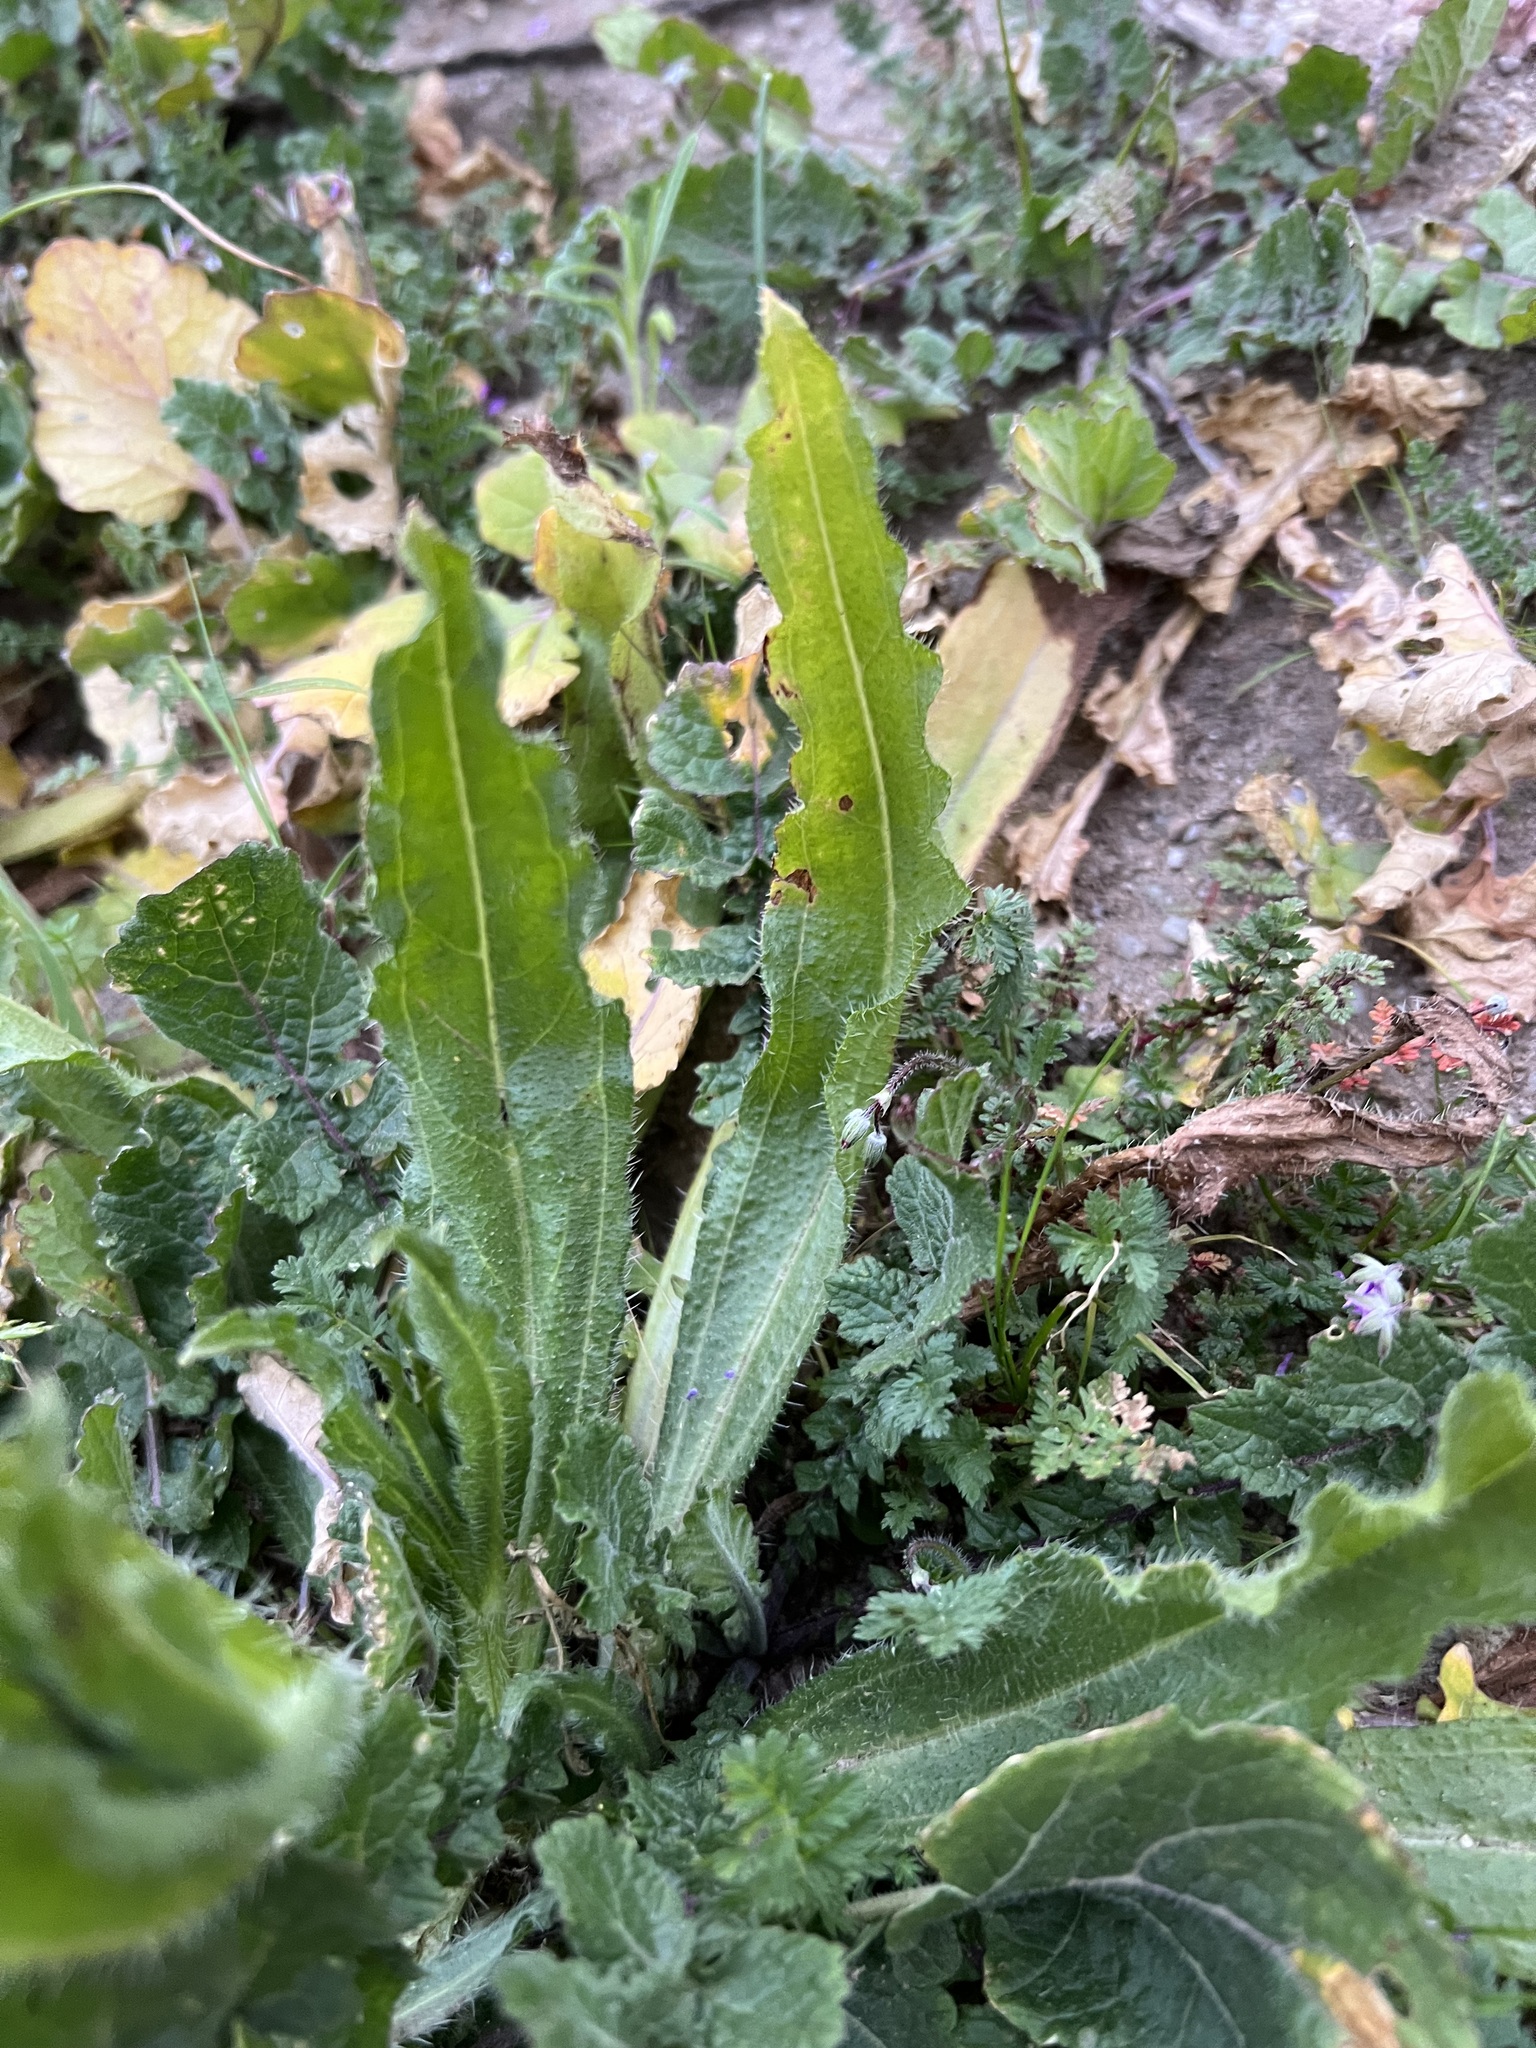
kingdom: Plantae
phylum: Tracheophyta
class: Magnoliopsida
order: Boraginales
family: Boraginaceae
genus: Amsinckia
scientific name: Amsinckia menziesii
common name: Menzies' fiddleneck
